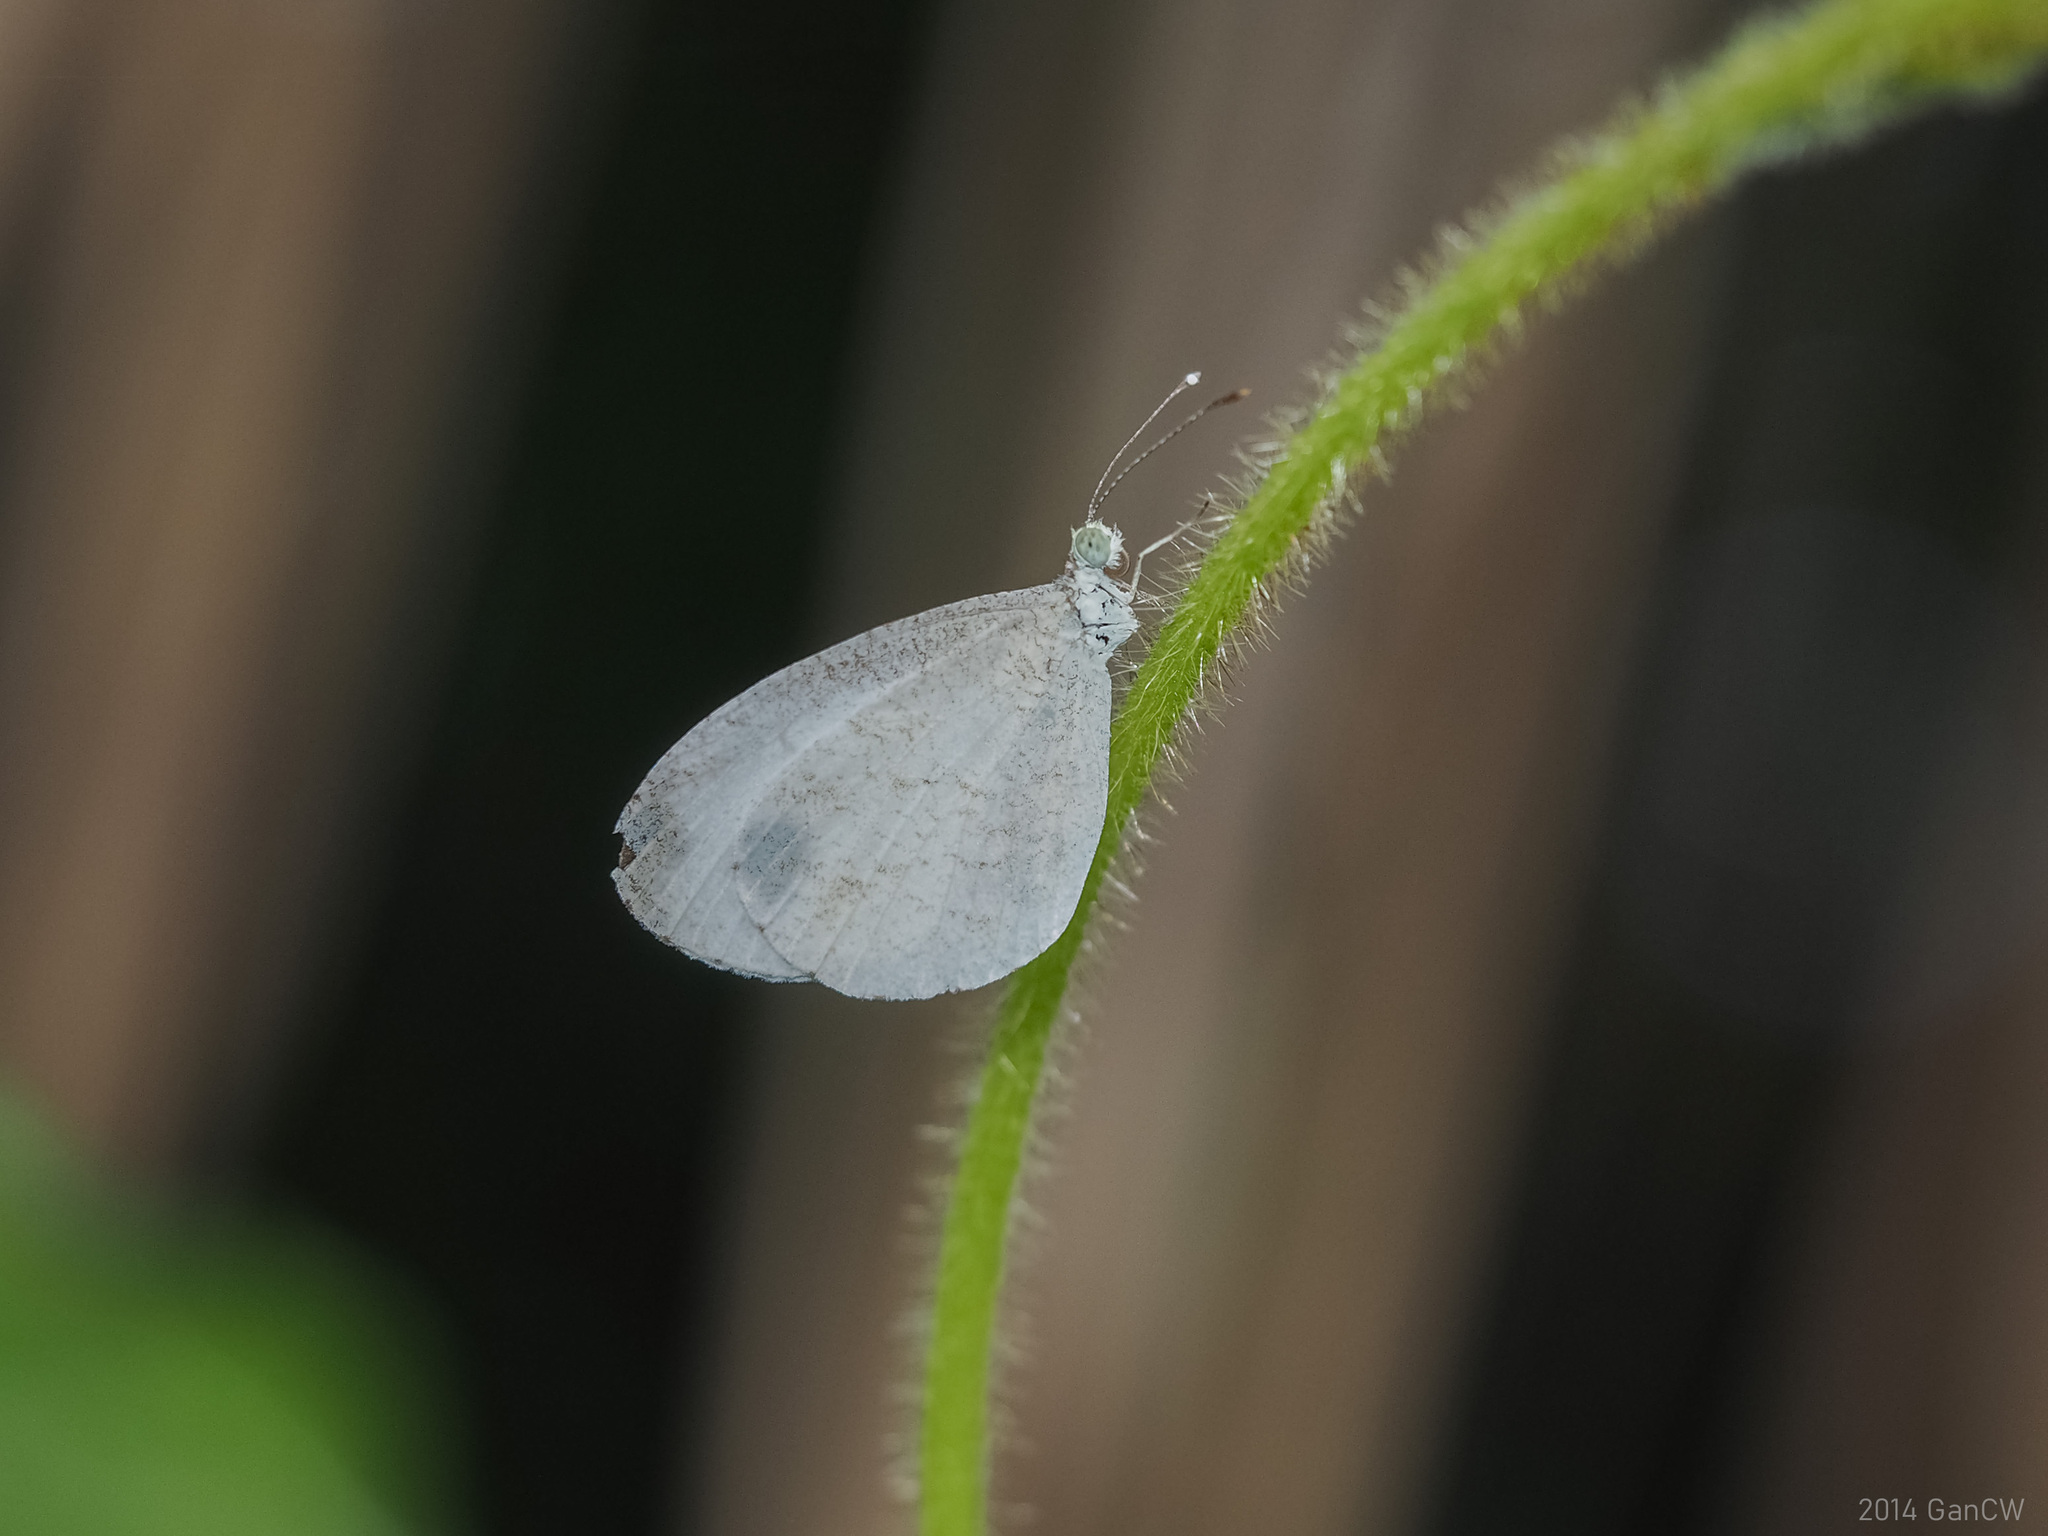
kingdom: Animalia
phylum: Arthropoda
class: Insecta
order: Lepidoptera
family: Pieridae
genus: Leptosia
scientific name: Leptosia nina
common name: Psyche
